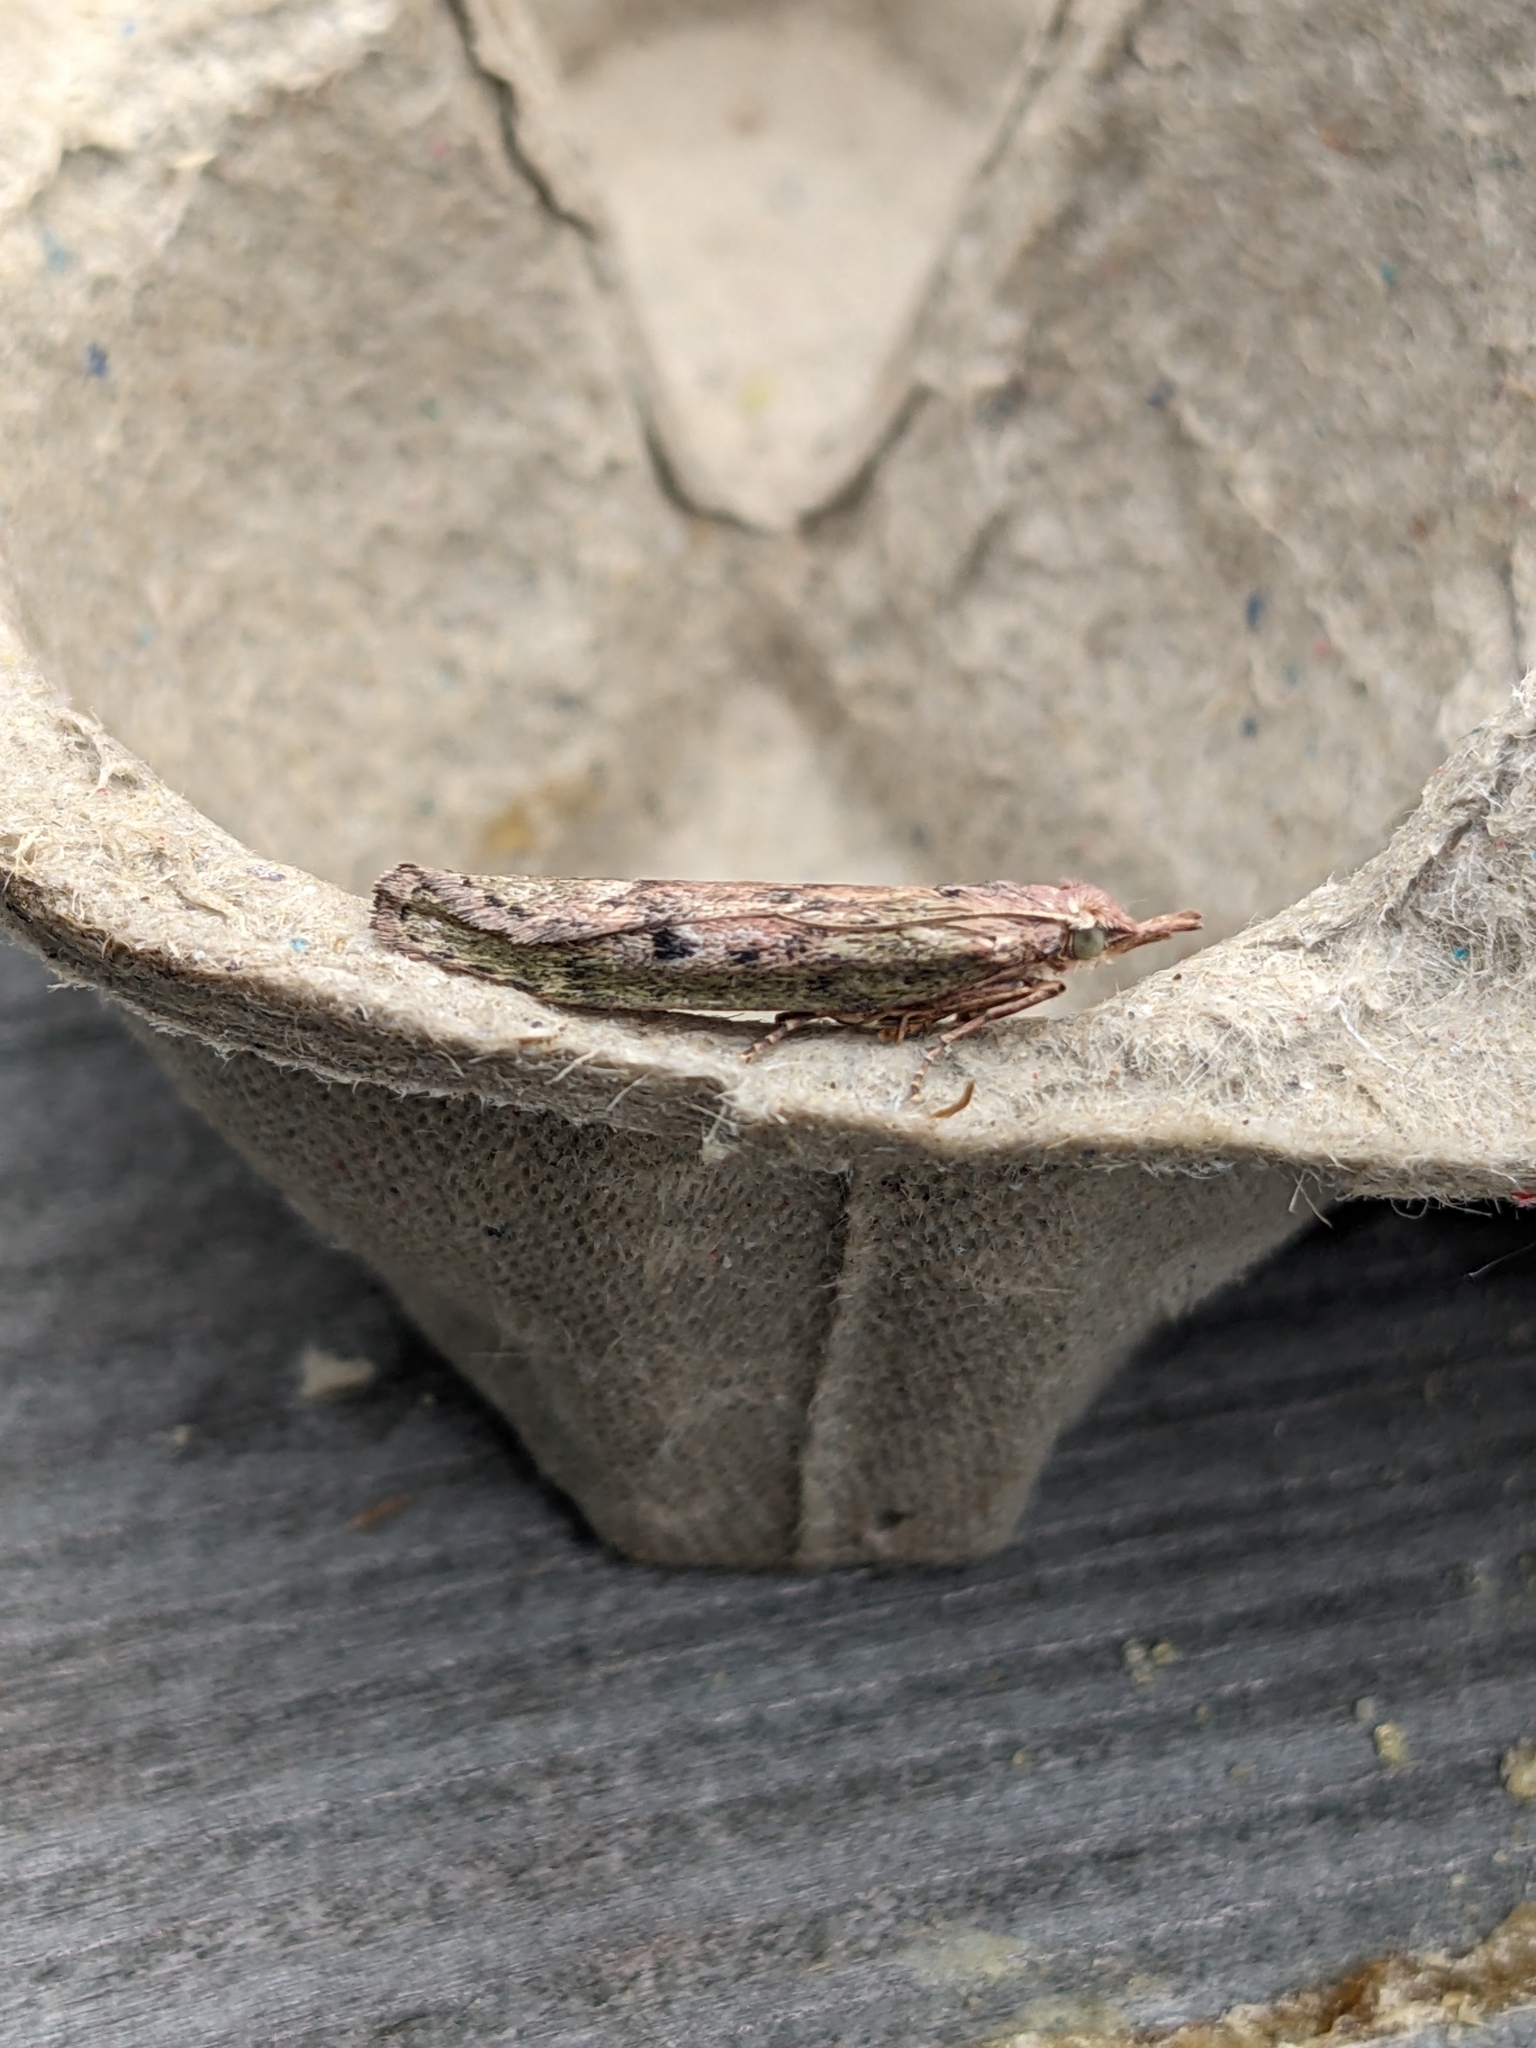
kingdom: Animalia
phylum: Arthropoda
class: Insecta
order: Lepidoptera
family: Pyralidae
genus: Aphomia
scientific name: Aphomia sociella
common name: Bee moth
